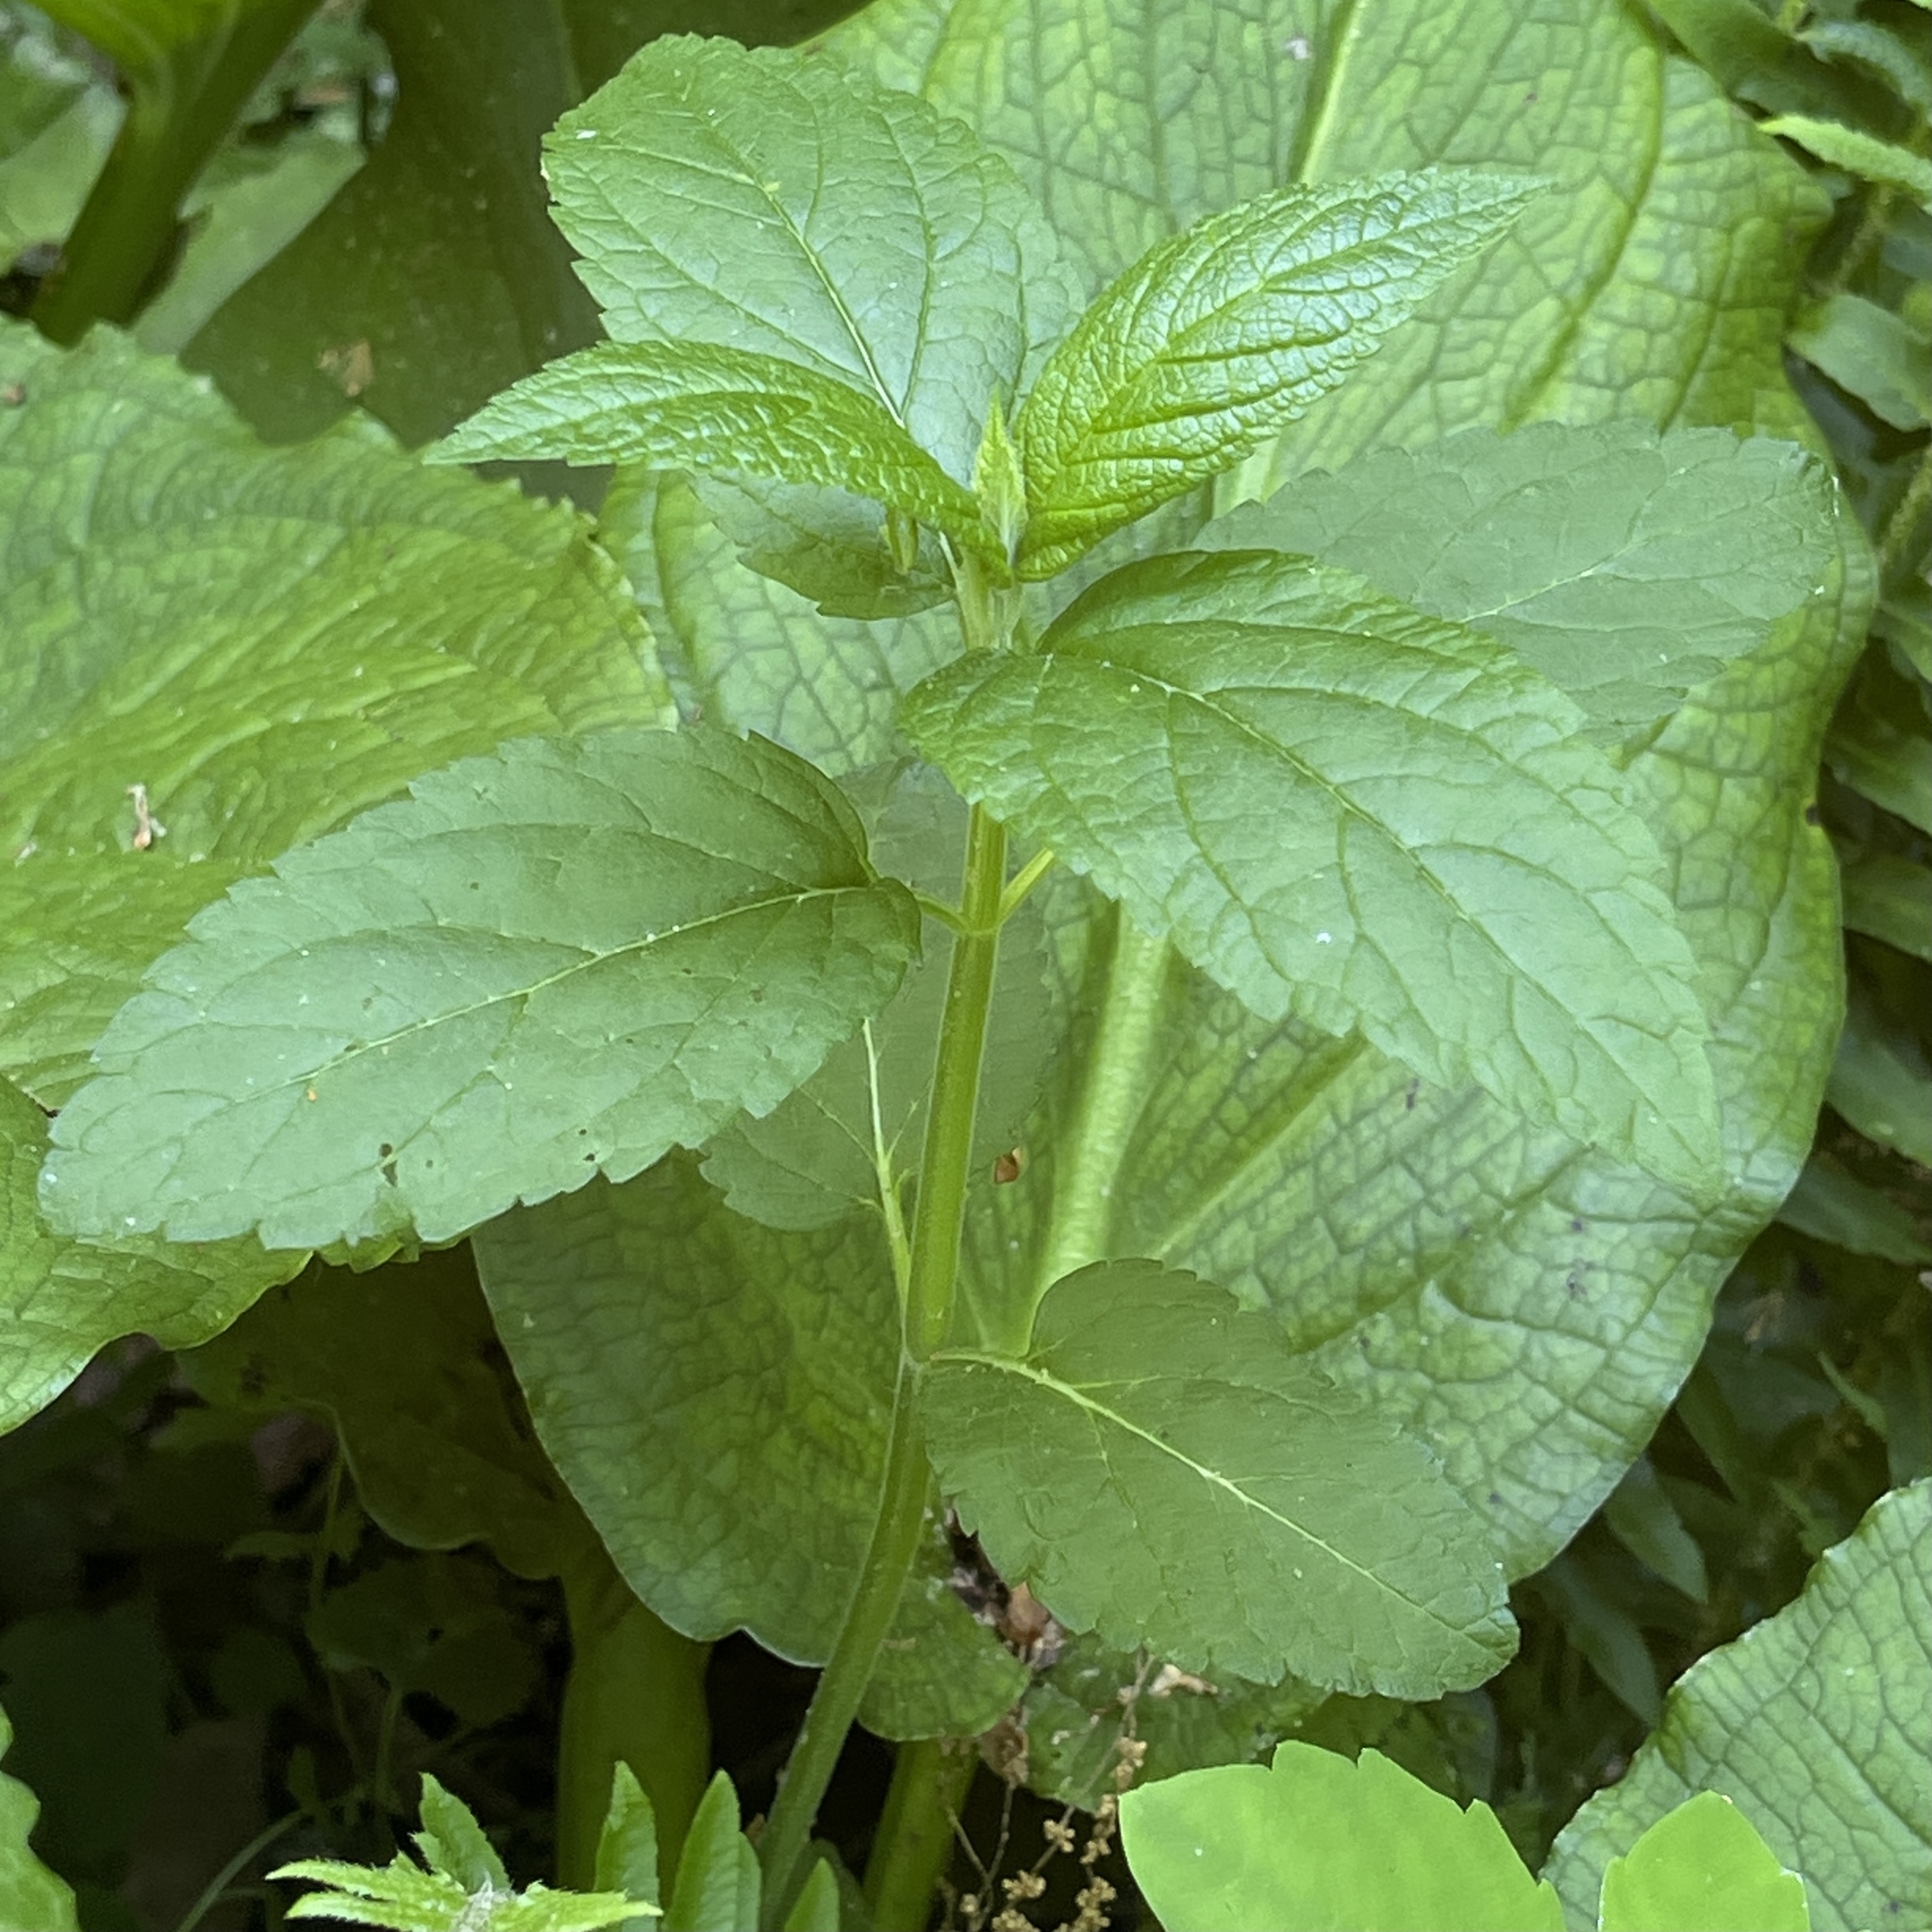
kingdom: Plantae
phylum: Tracheophyta
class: Magnoliopsida
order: Lamiales
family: Lamiaceae
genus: Teucrium
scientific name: Teucrium canadense
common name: American germander
